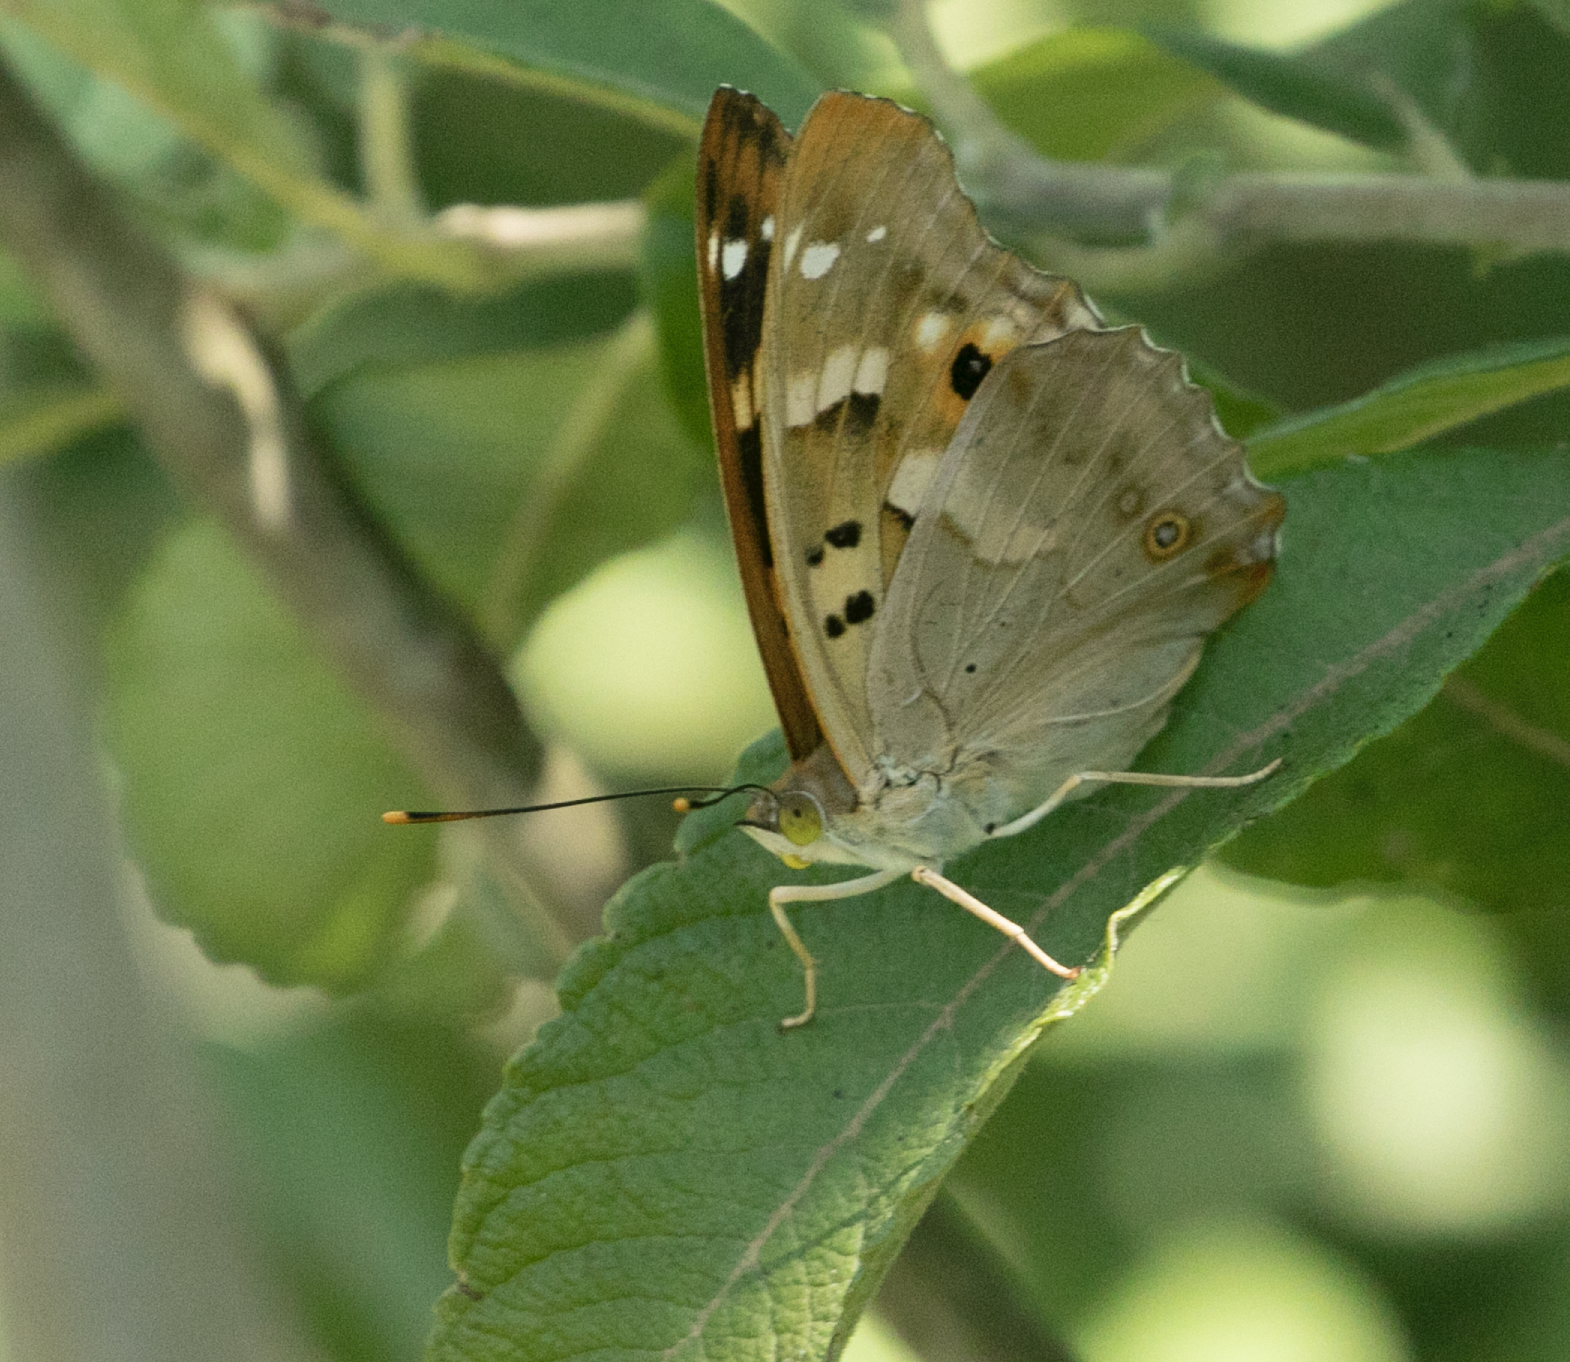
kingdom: Animalia
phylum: Arthropoda
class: Insecta
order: Lepidoptera
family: Nymphalidae
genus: Apatura
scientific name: Apatura ilia
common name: Lesser purple emperor
